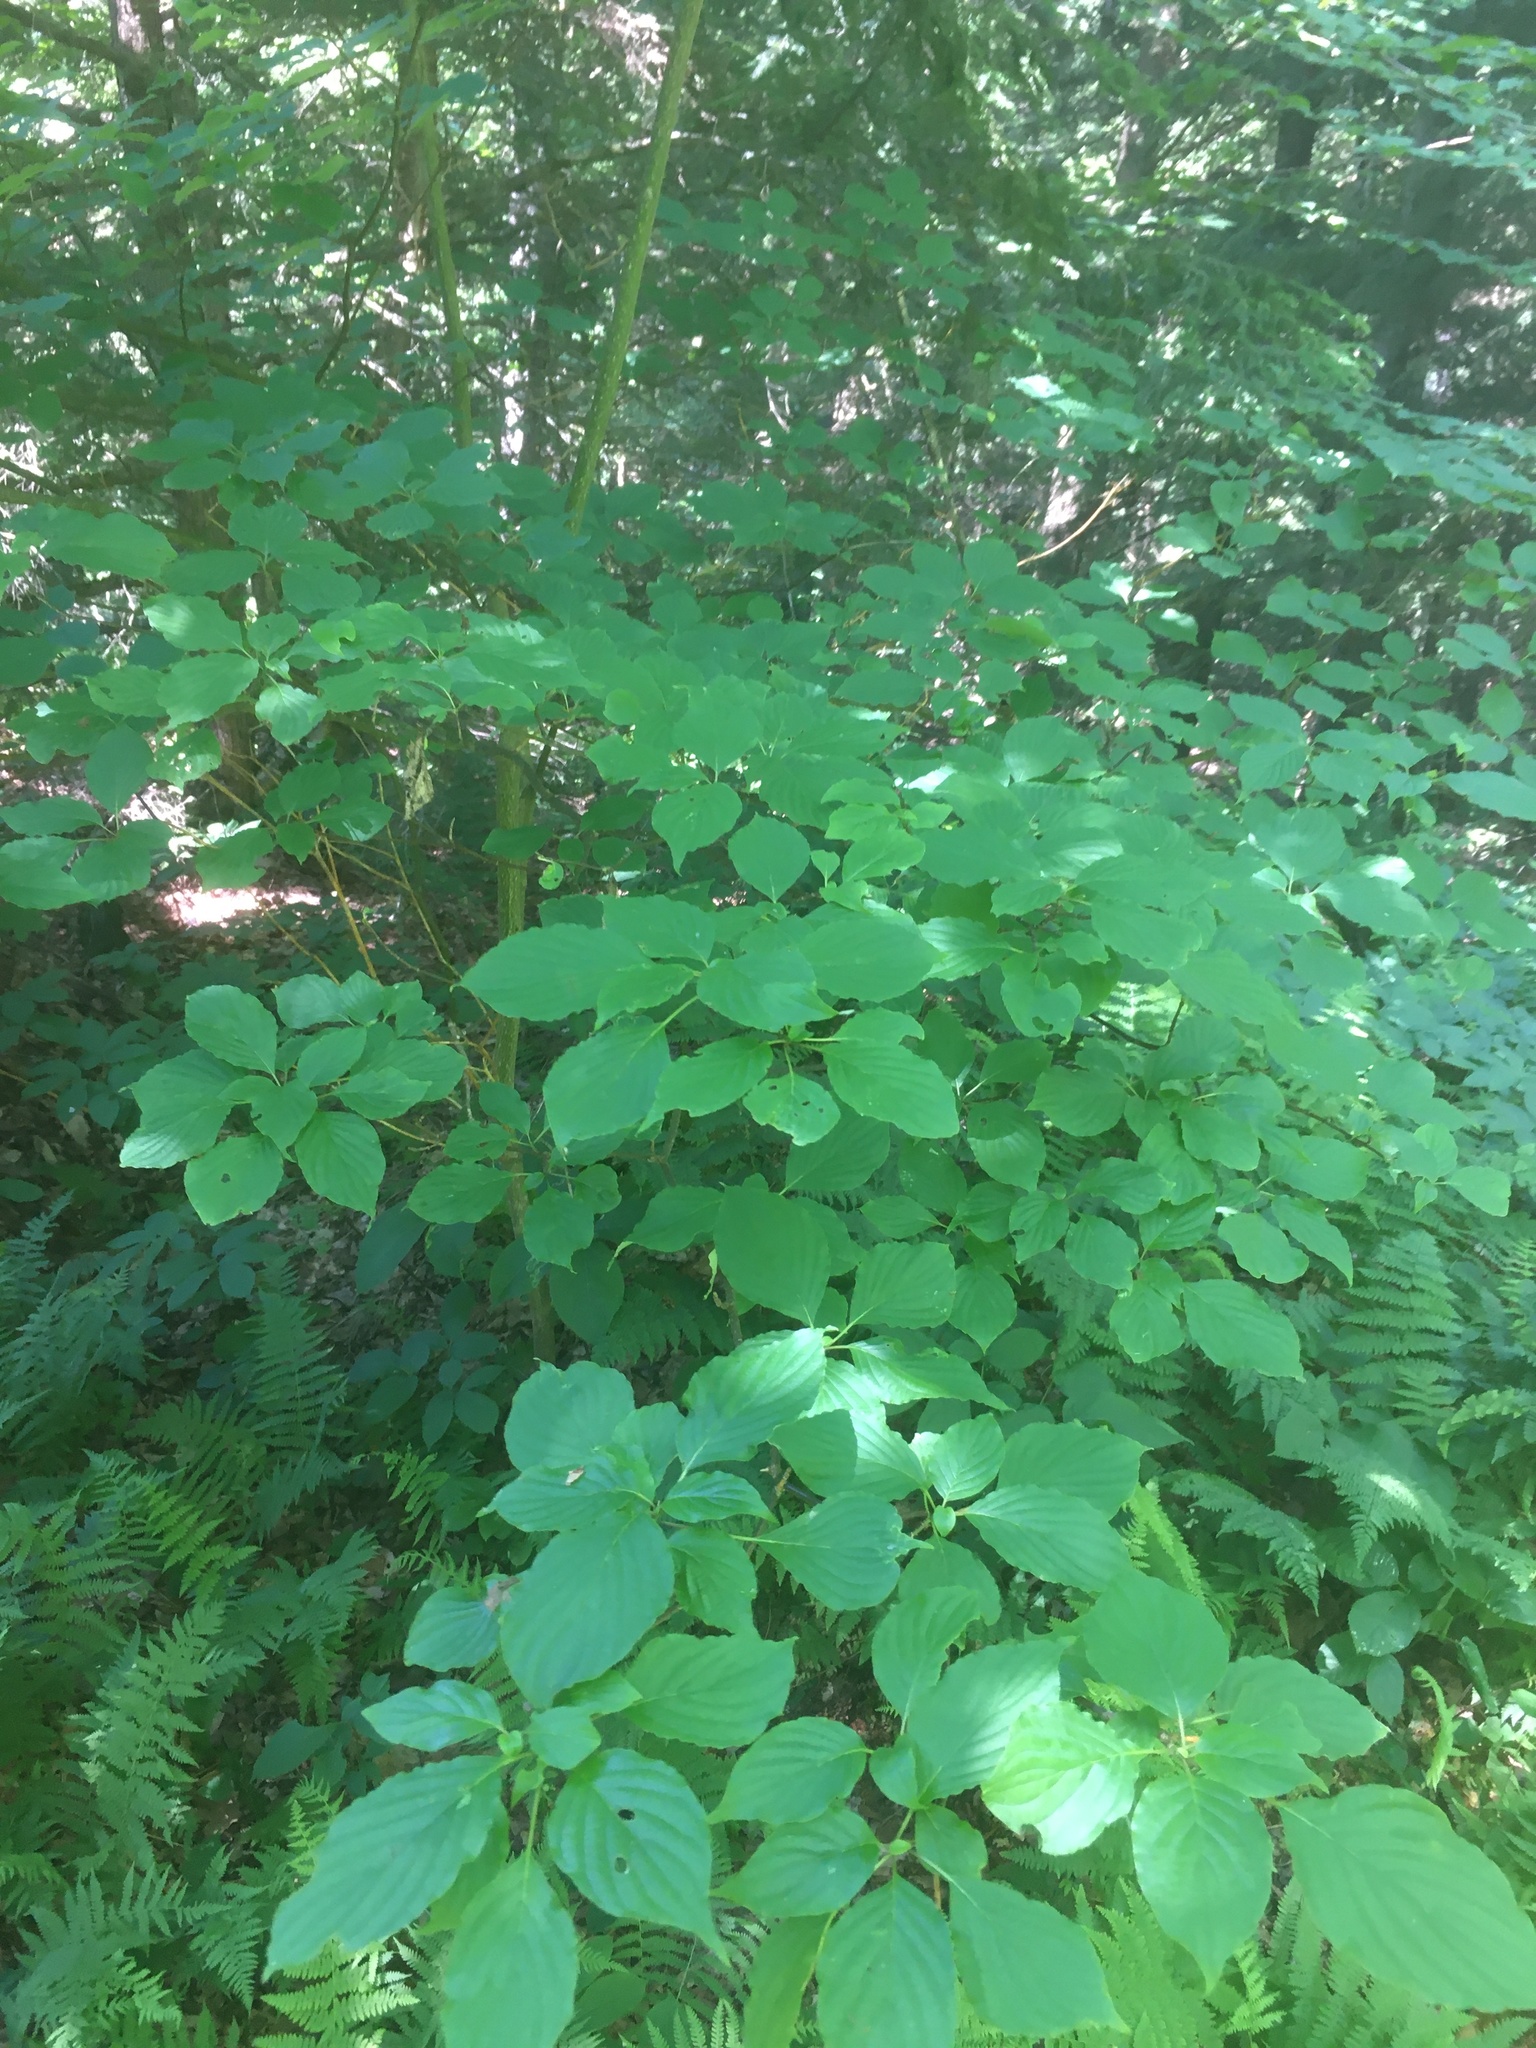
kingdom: Plantae
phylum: Tracheophyta
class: Magnoliopsida
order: Cornales
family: Cornaceae
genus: Cornus
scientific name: Cornus alternifolia
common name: Pagoda dogwood
